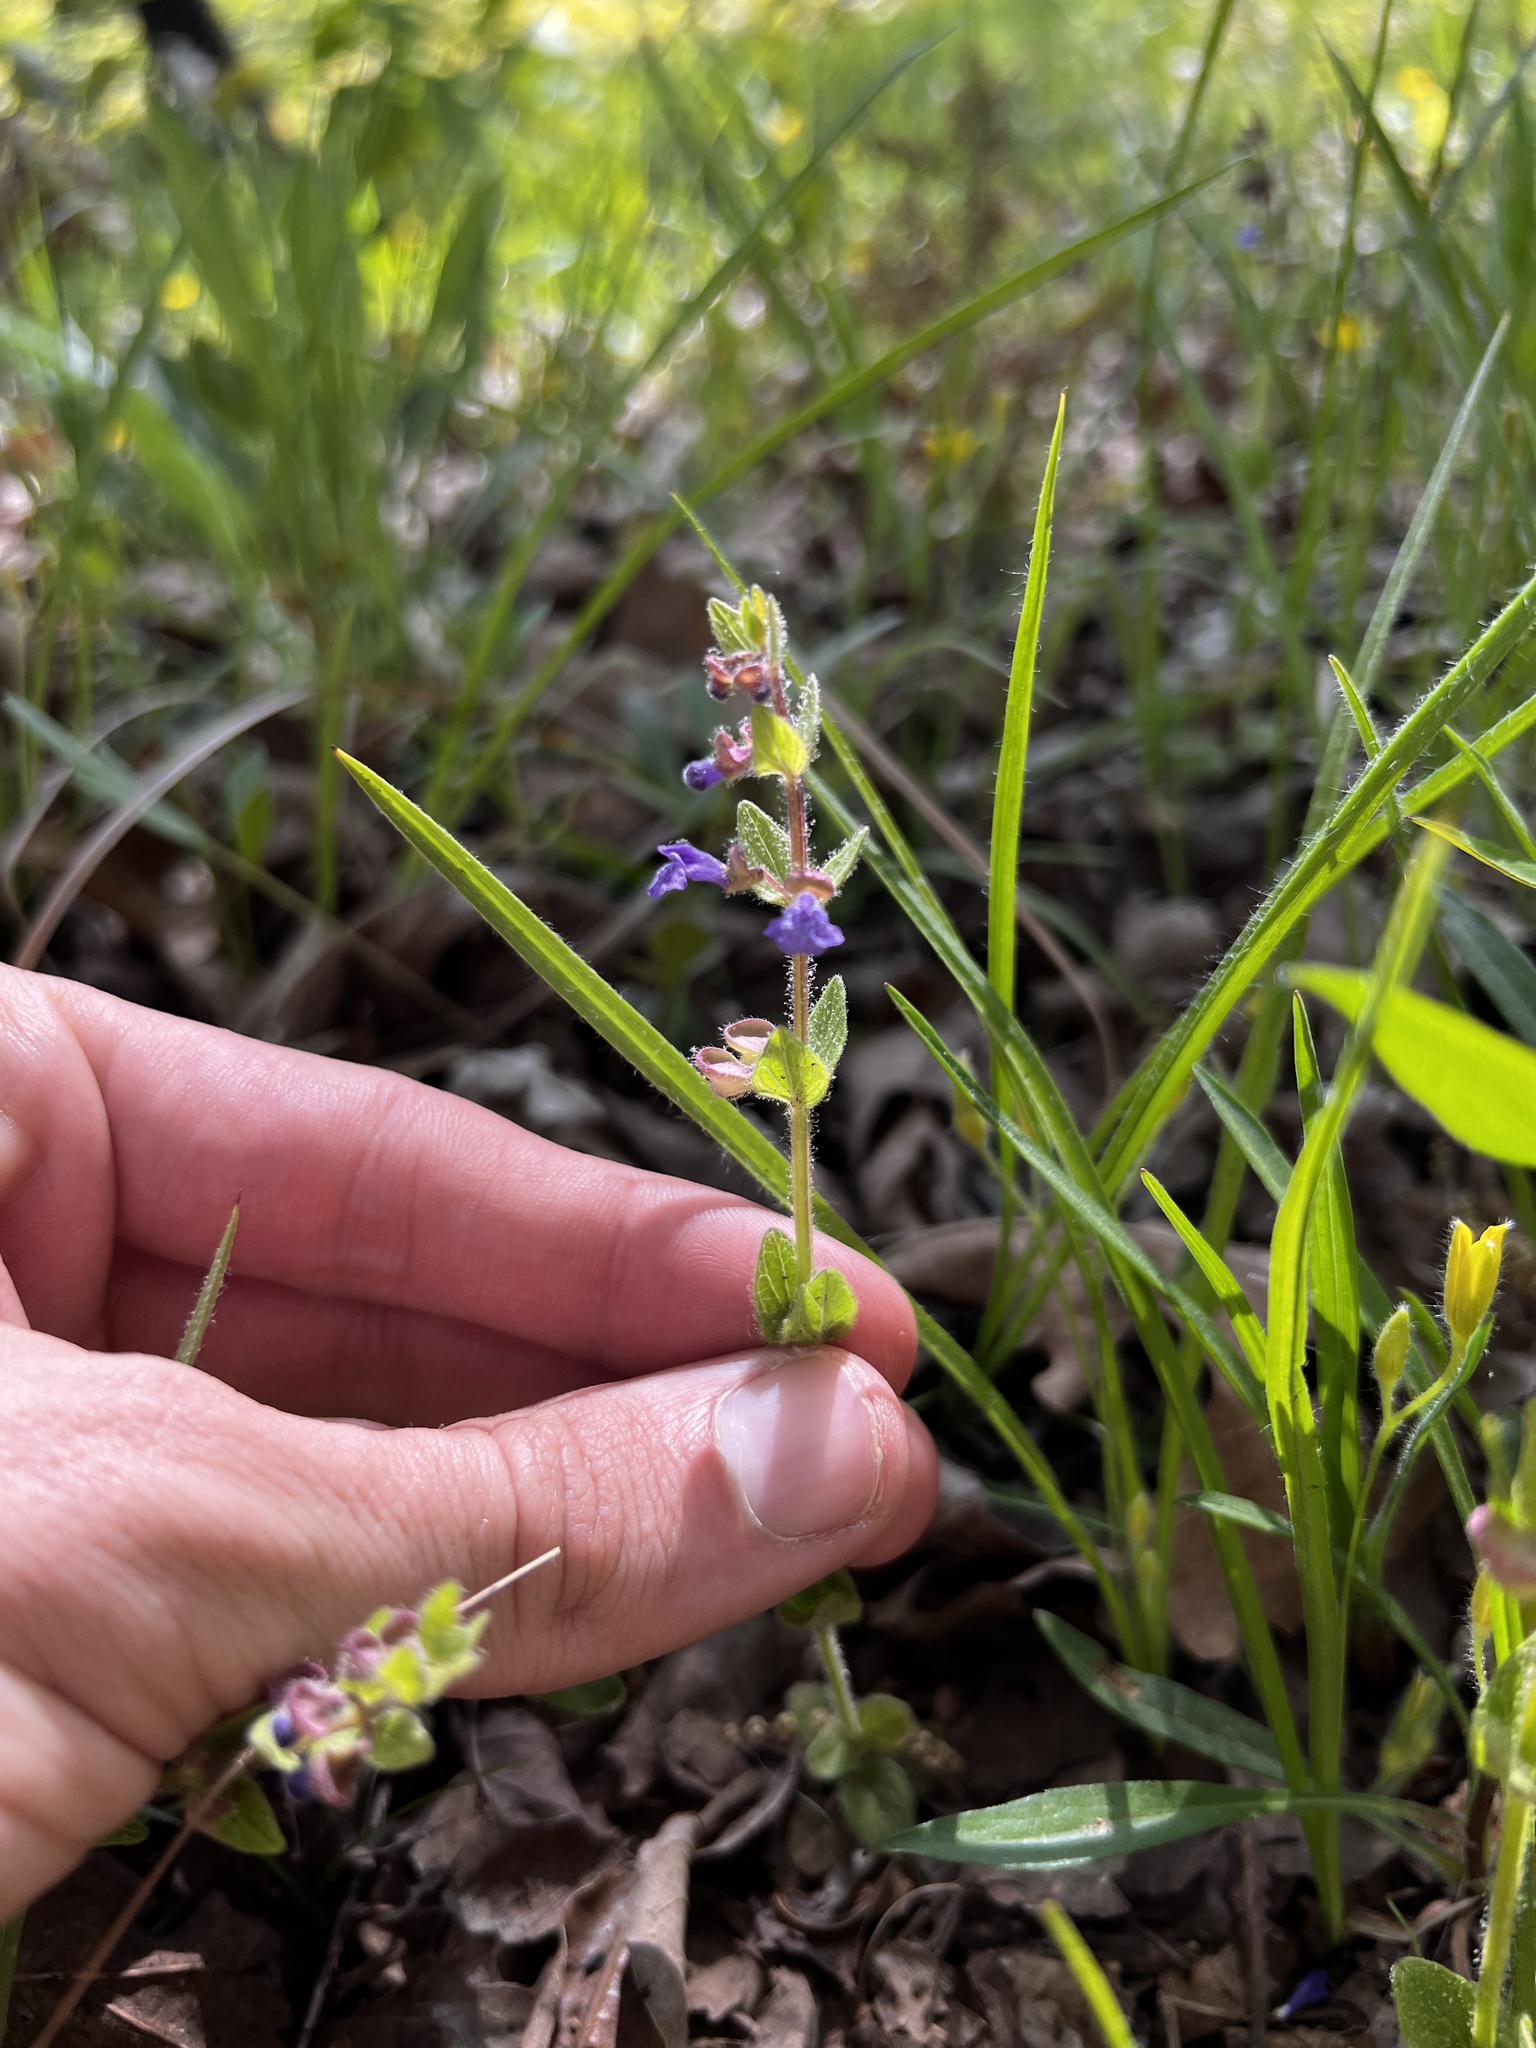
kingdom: Plantae
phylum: Tracheophyta
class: Magnoliopsida
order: Lamiales
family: Lamiaceae
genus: Scutellaria
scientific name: Scutellaria parvula
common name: Little scullcap
